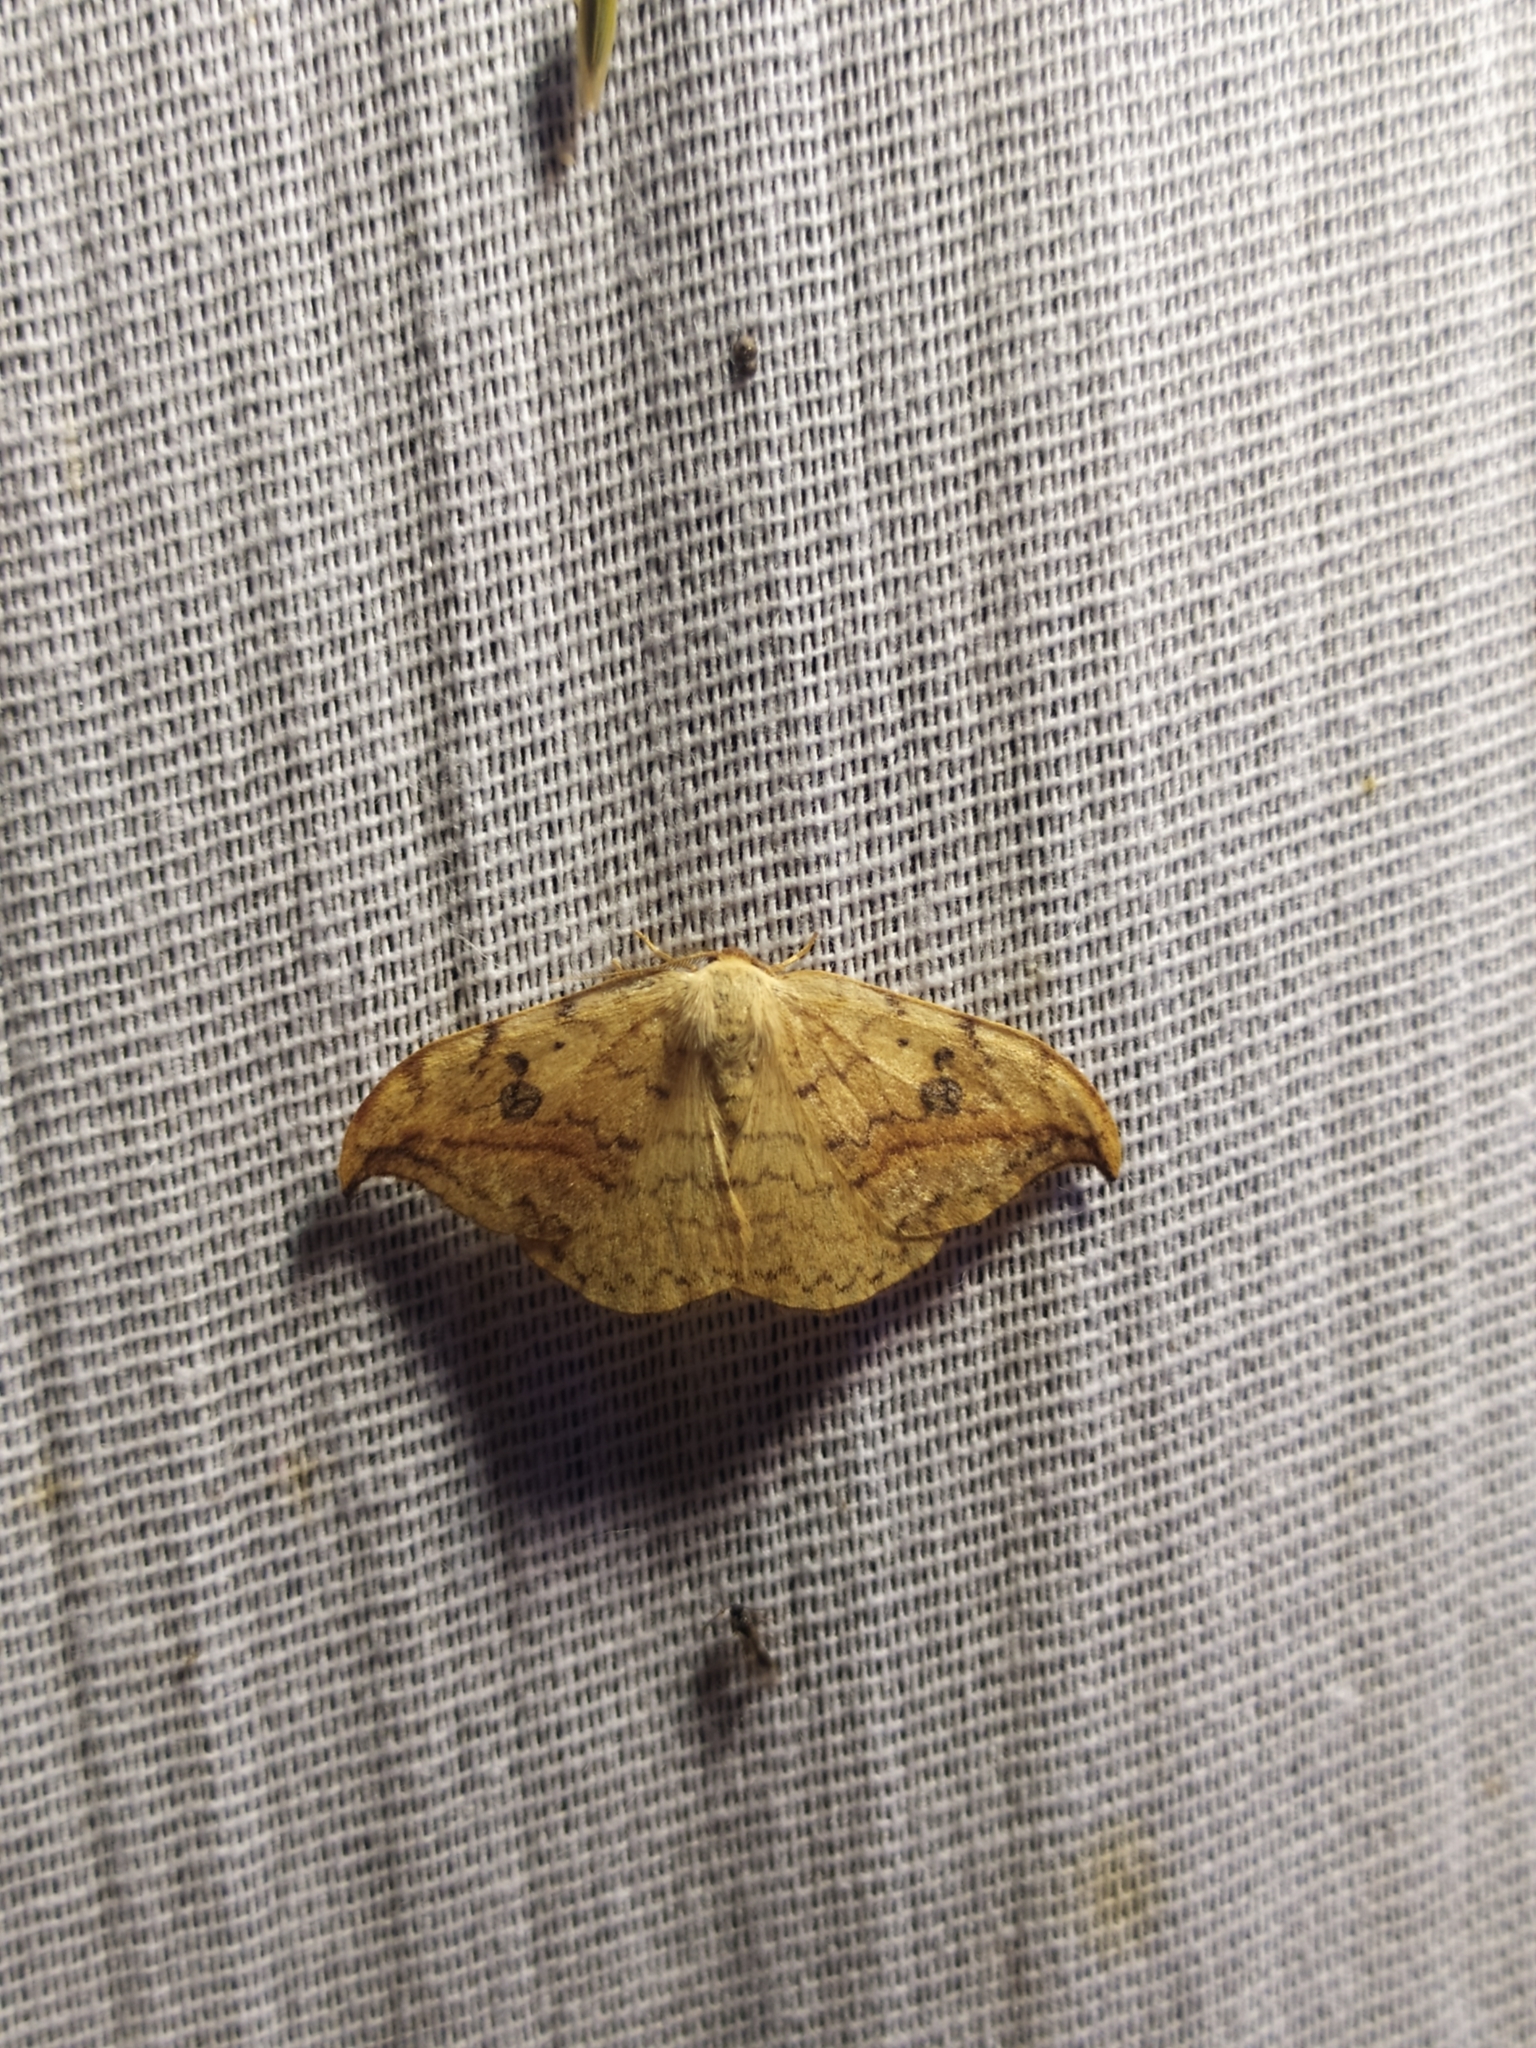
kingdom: Animalia
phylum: Arthropoda
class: Insecta
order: Lepidoptera
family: Drepanidae
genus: Drepana
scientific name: Drepana falcataria
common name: Pebble hook-tip
